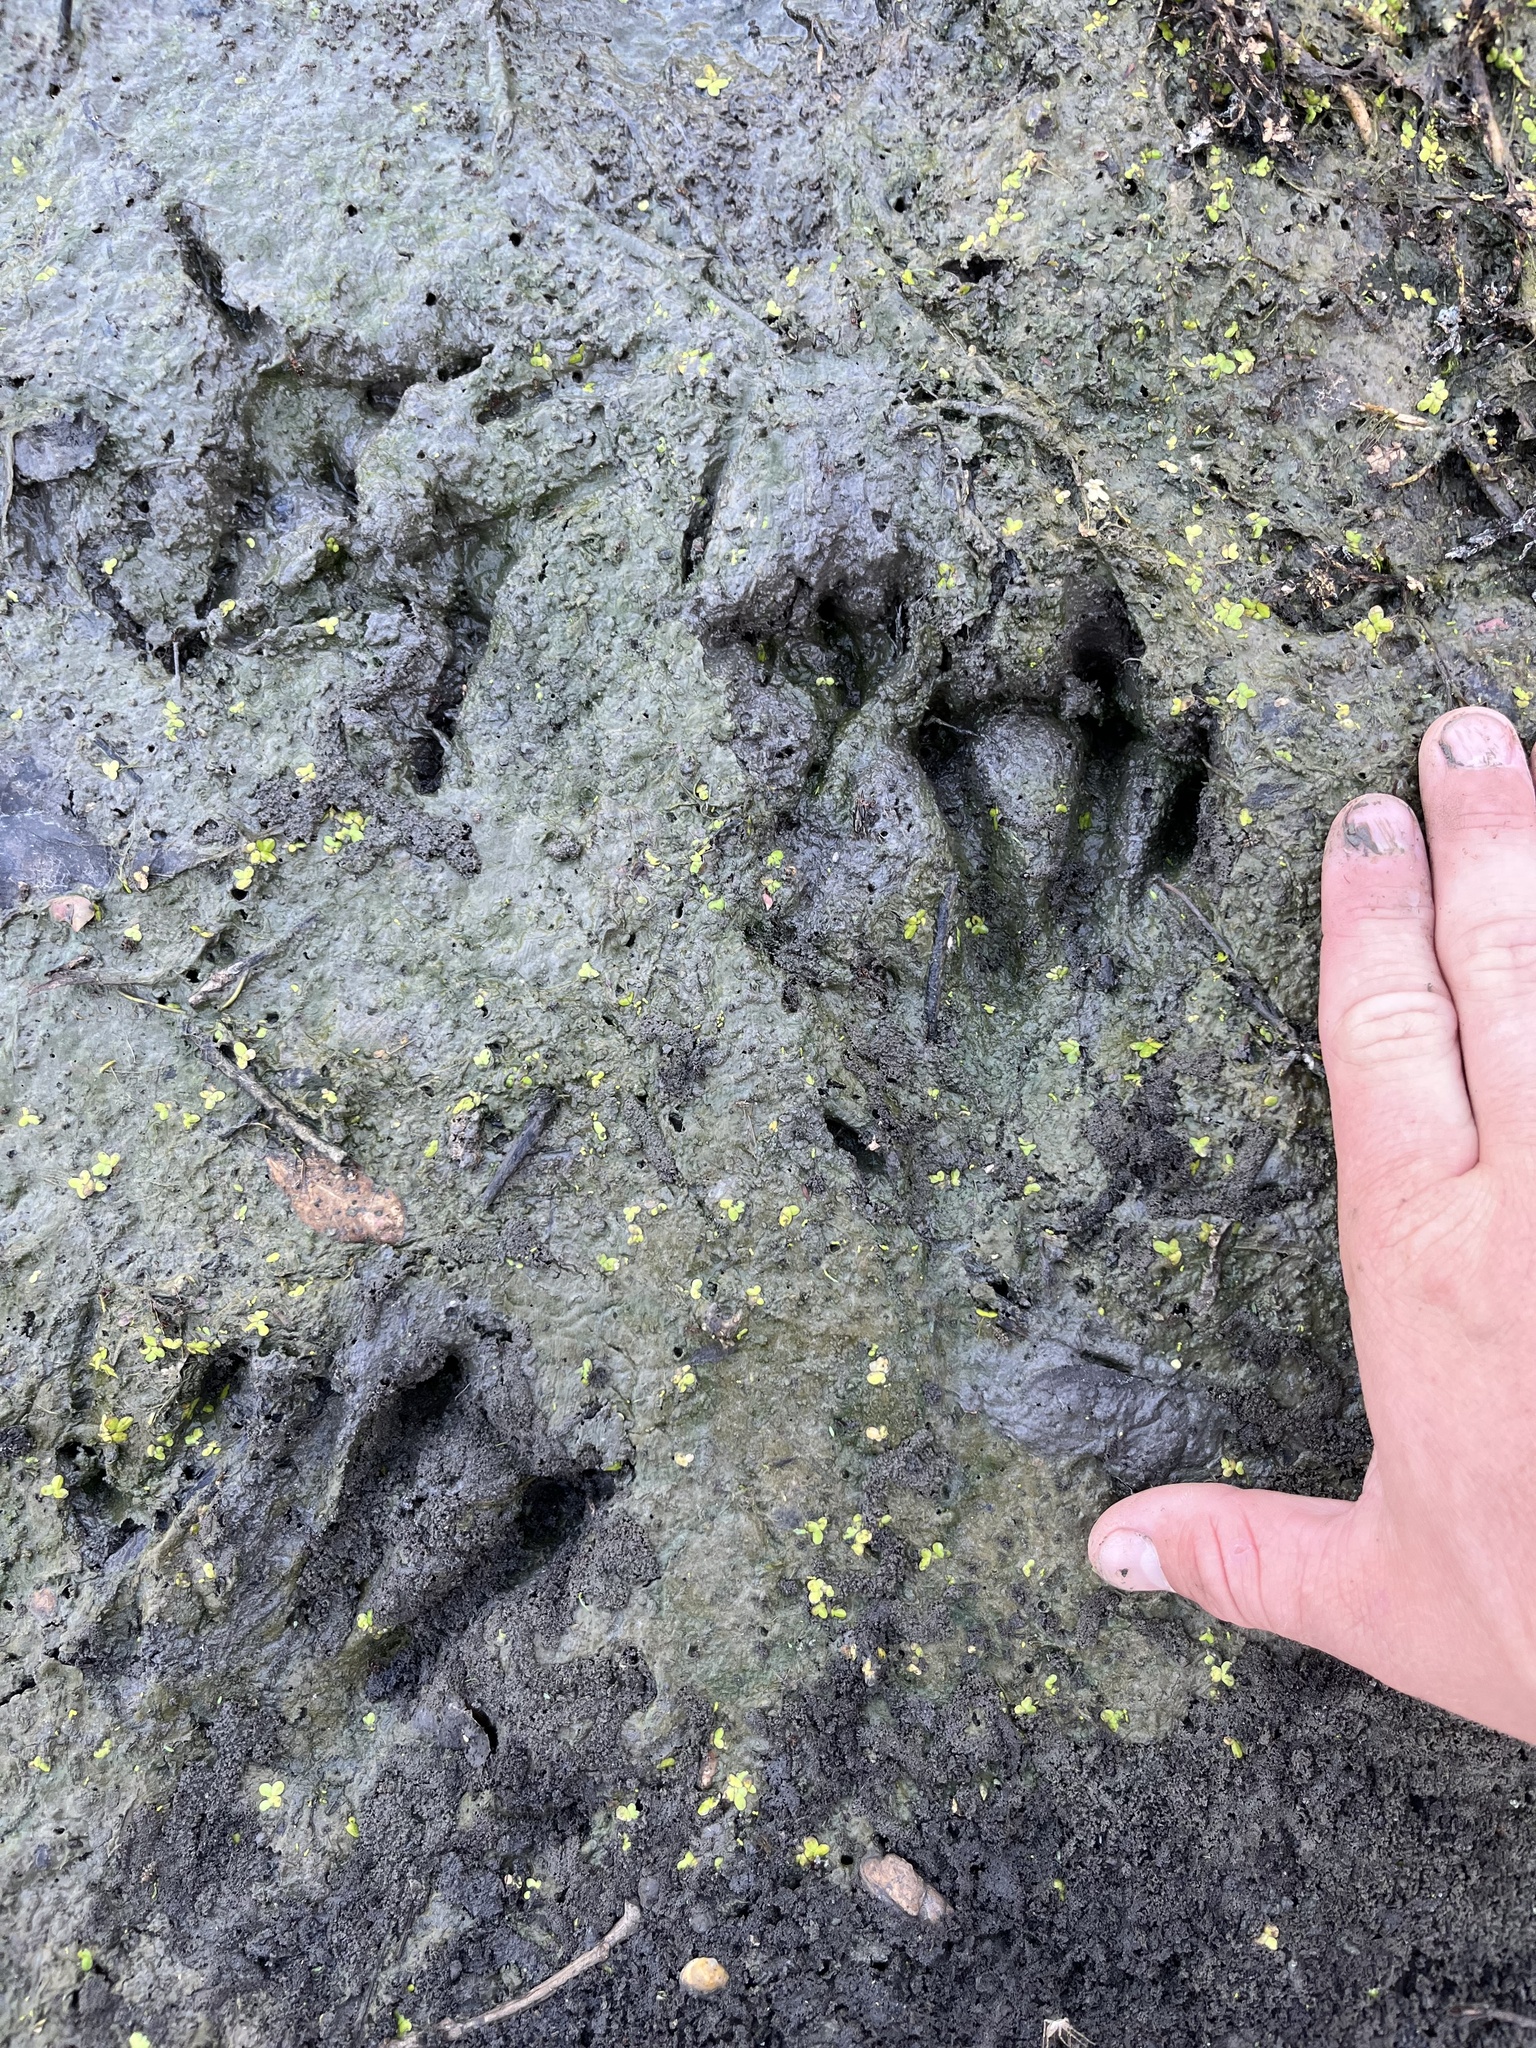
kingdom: Animalia
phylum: Chordata
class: Mammalia
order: Rodentia
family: Castoridae
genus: Castor
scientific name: Castor canadensis
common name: American beaver
